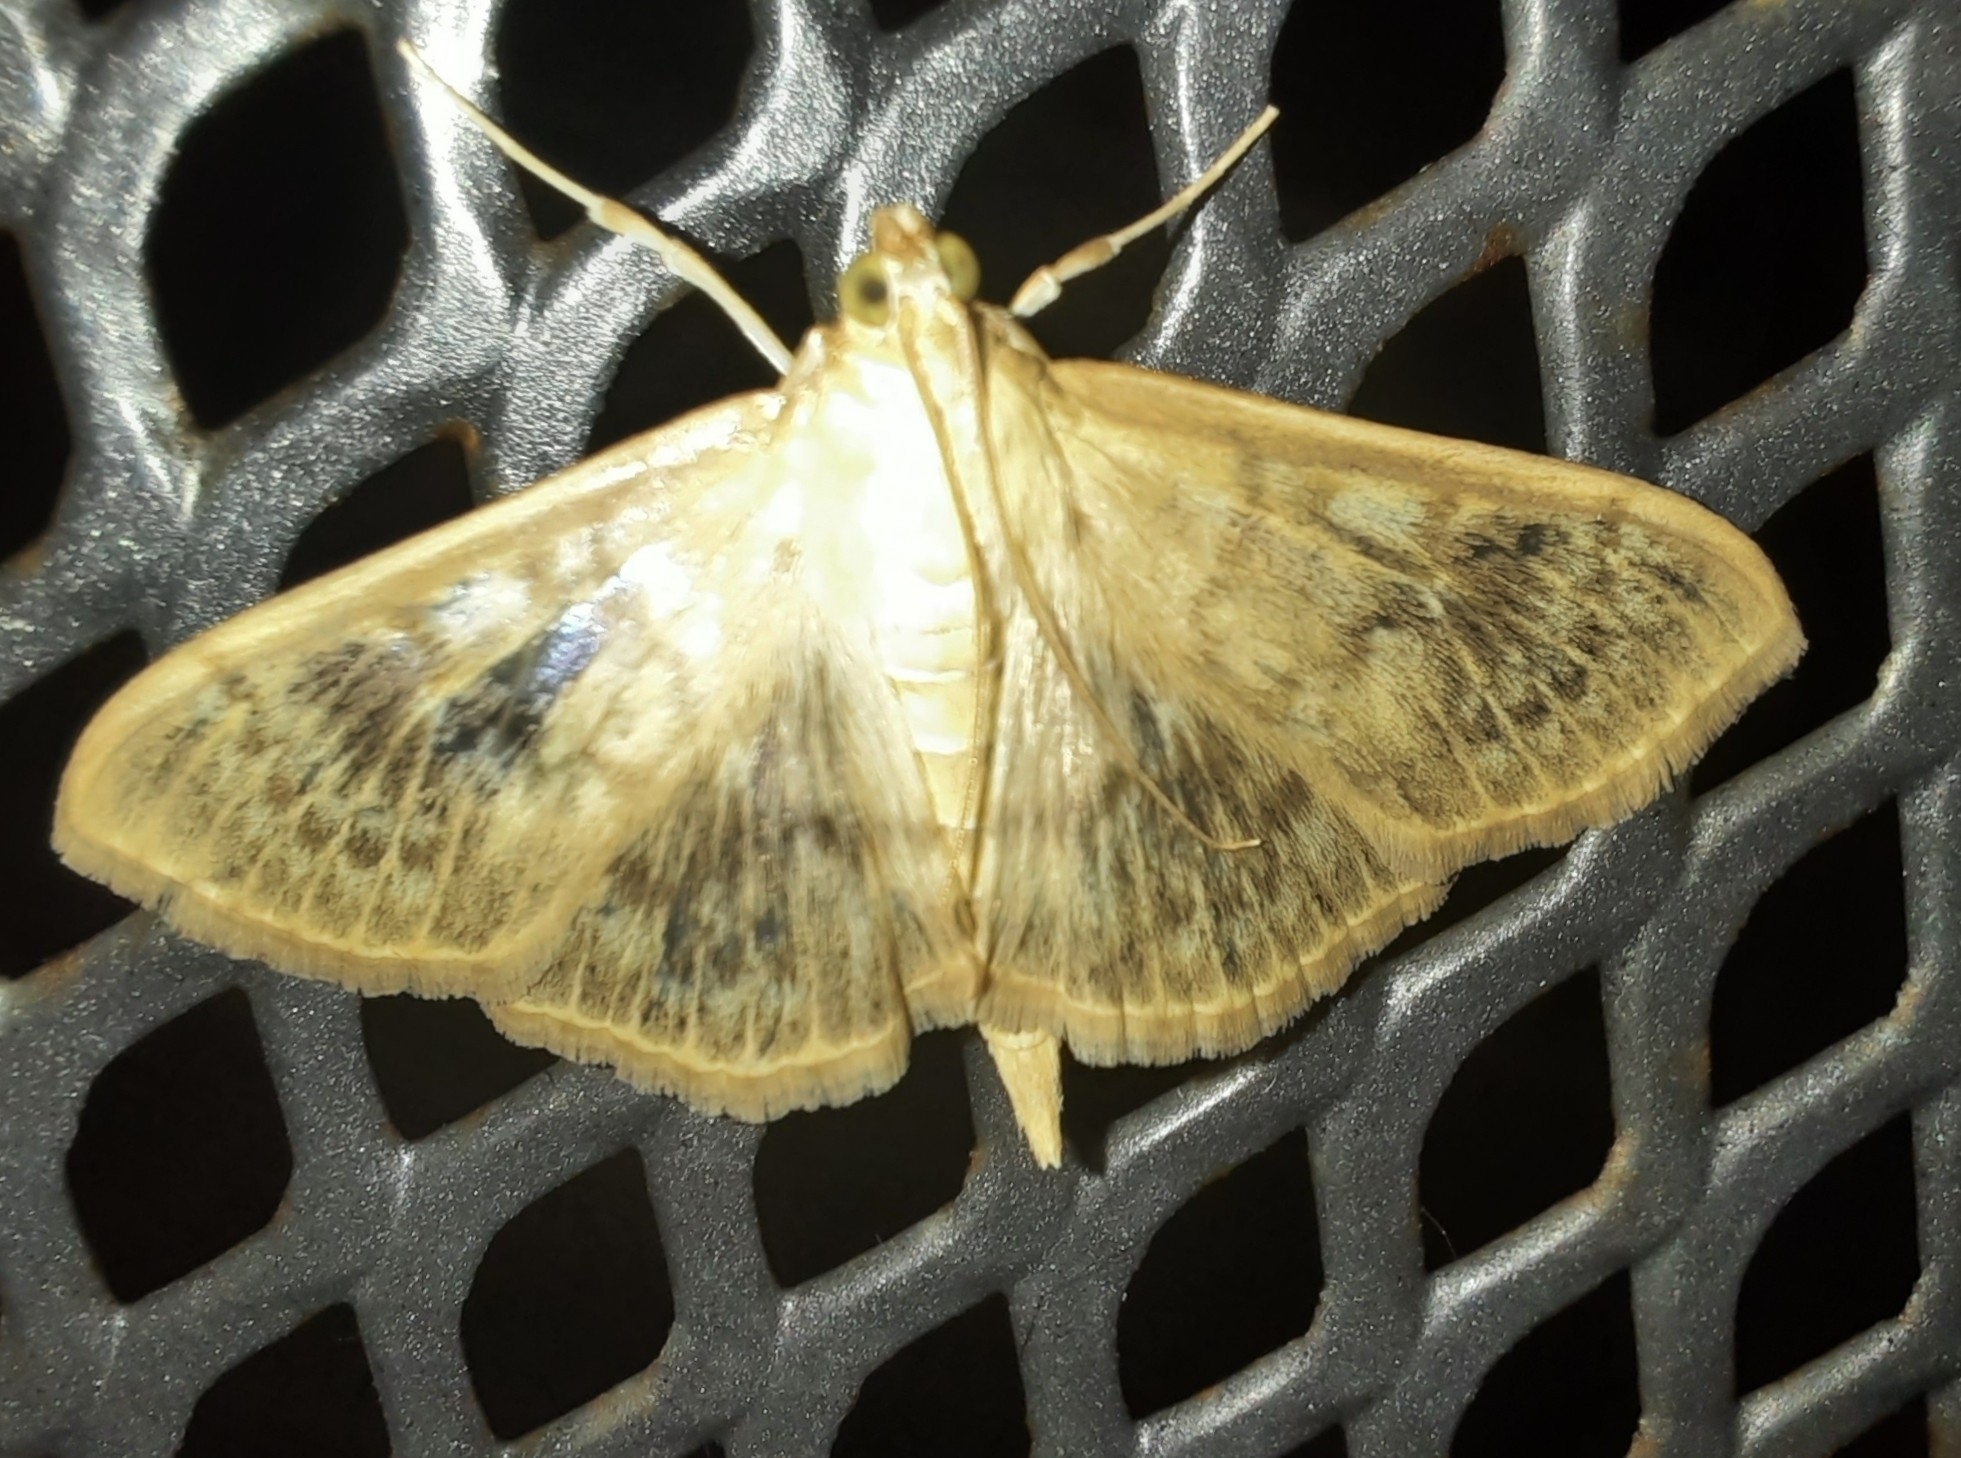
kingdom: Animalia
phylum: Arthropoda
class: Insecta
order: Lepidoptera
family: Crambidae
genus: Patania
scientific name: Patania ruralis
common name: Mother of pearl
